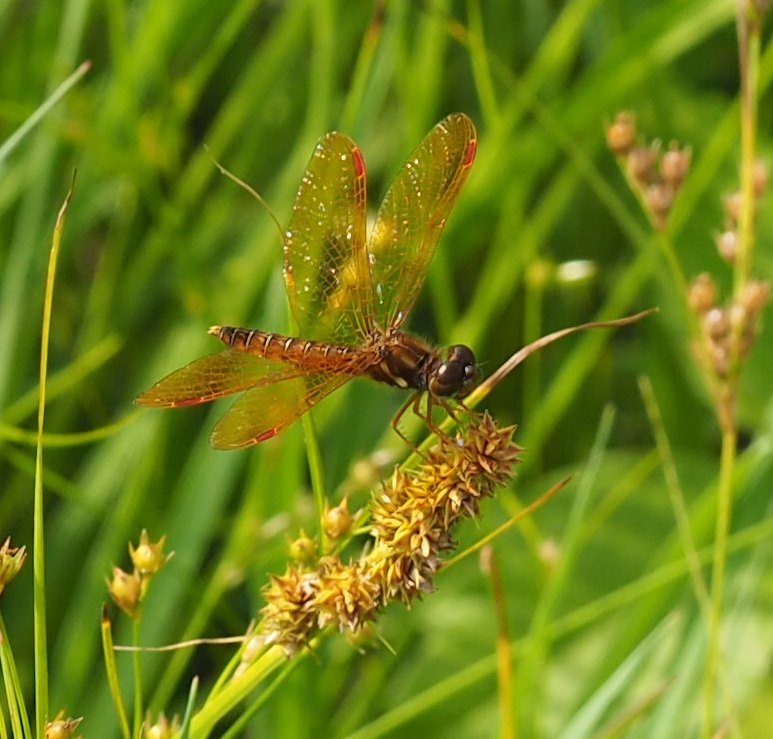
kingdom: Animalia
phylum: Arthropoda
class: Insecta
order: Odonata
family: Libellulidae
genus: Perithemis
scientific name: Perithemis tenera
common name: Eastern amberwing
